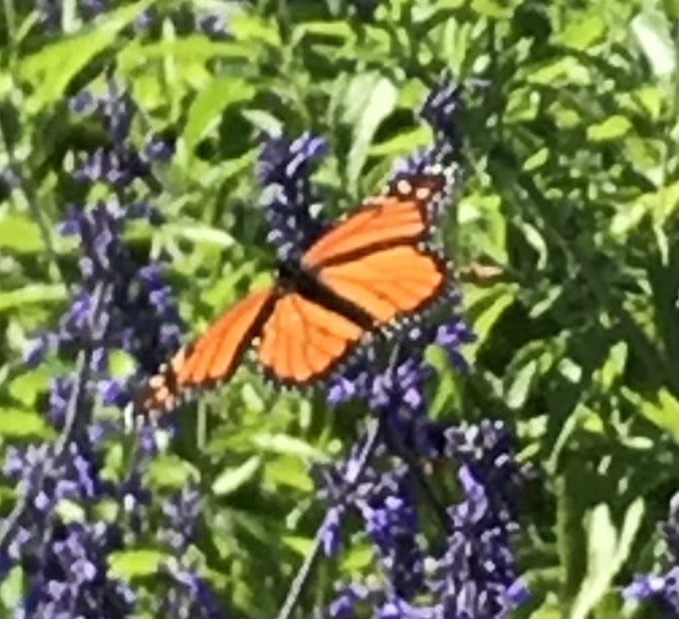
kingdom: Animalia
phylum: Arthropoda
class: Insecta
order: Lepidoptera
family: Nymphalidae
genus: Danaus
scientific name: Danaus plexippus
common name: Monarch
